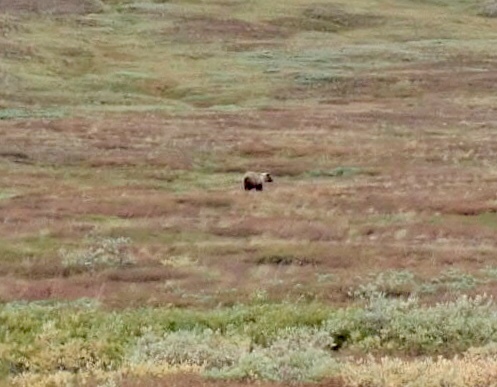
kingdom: Animalia
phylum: Chordata
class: Mammalia
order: Carnivora
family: Ursidae
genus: Ursus
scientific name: Ursus arctos
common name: Brown bear
